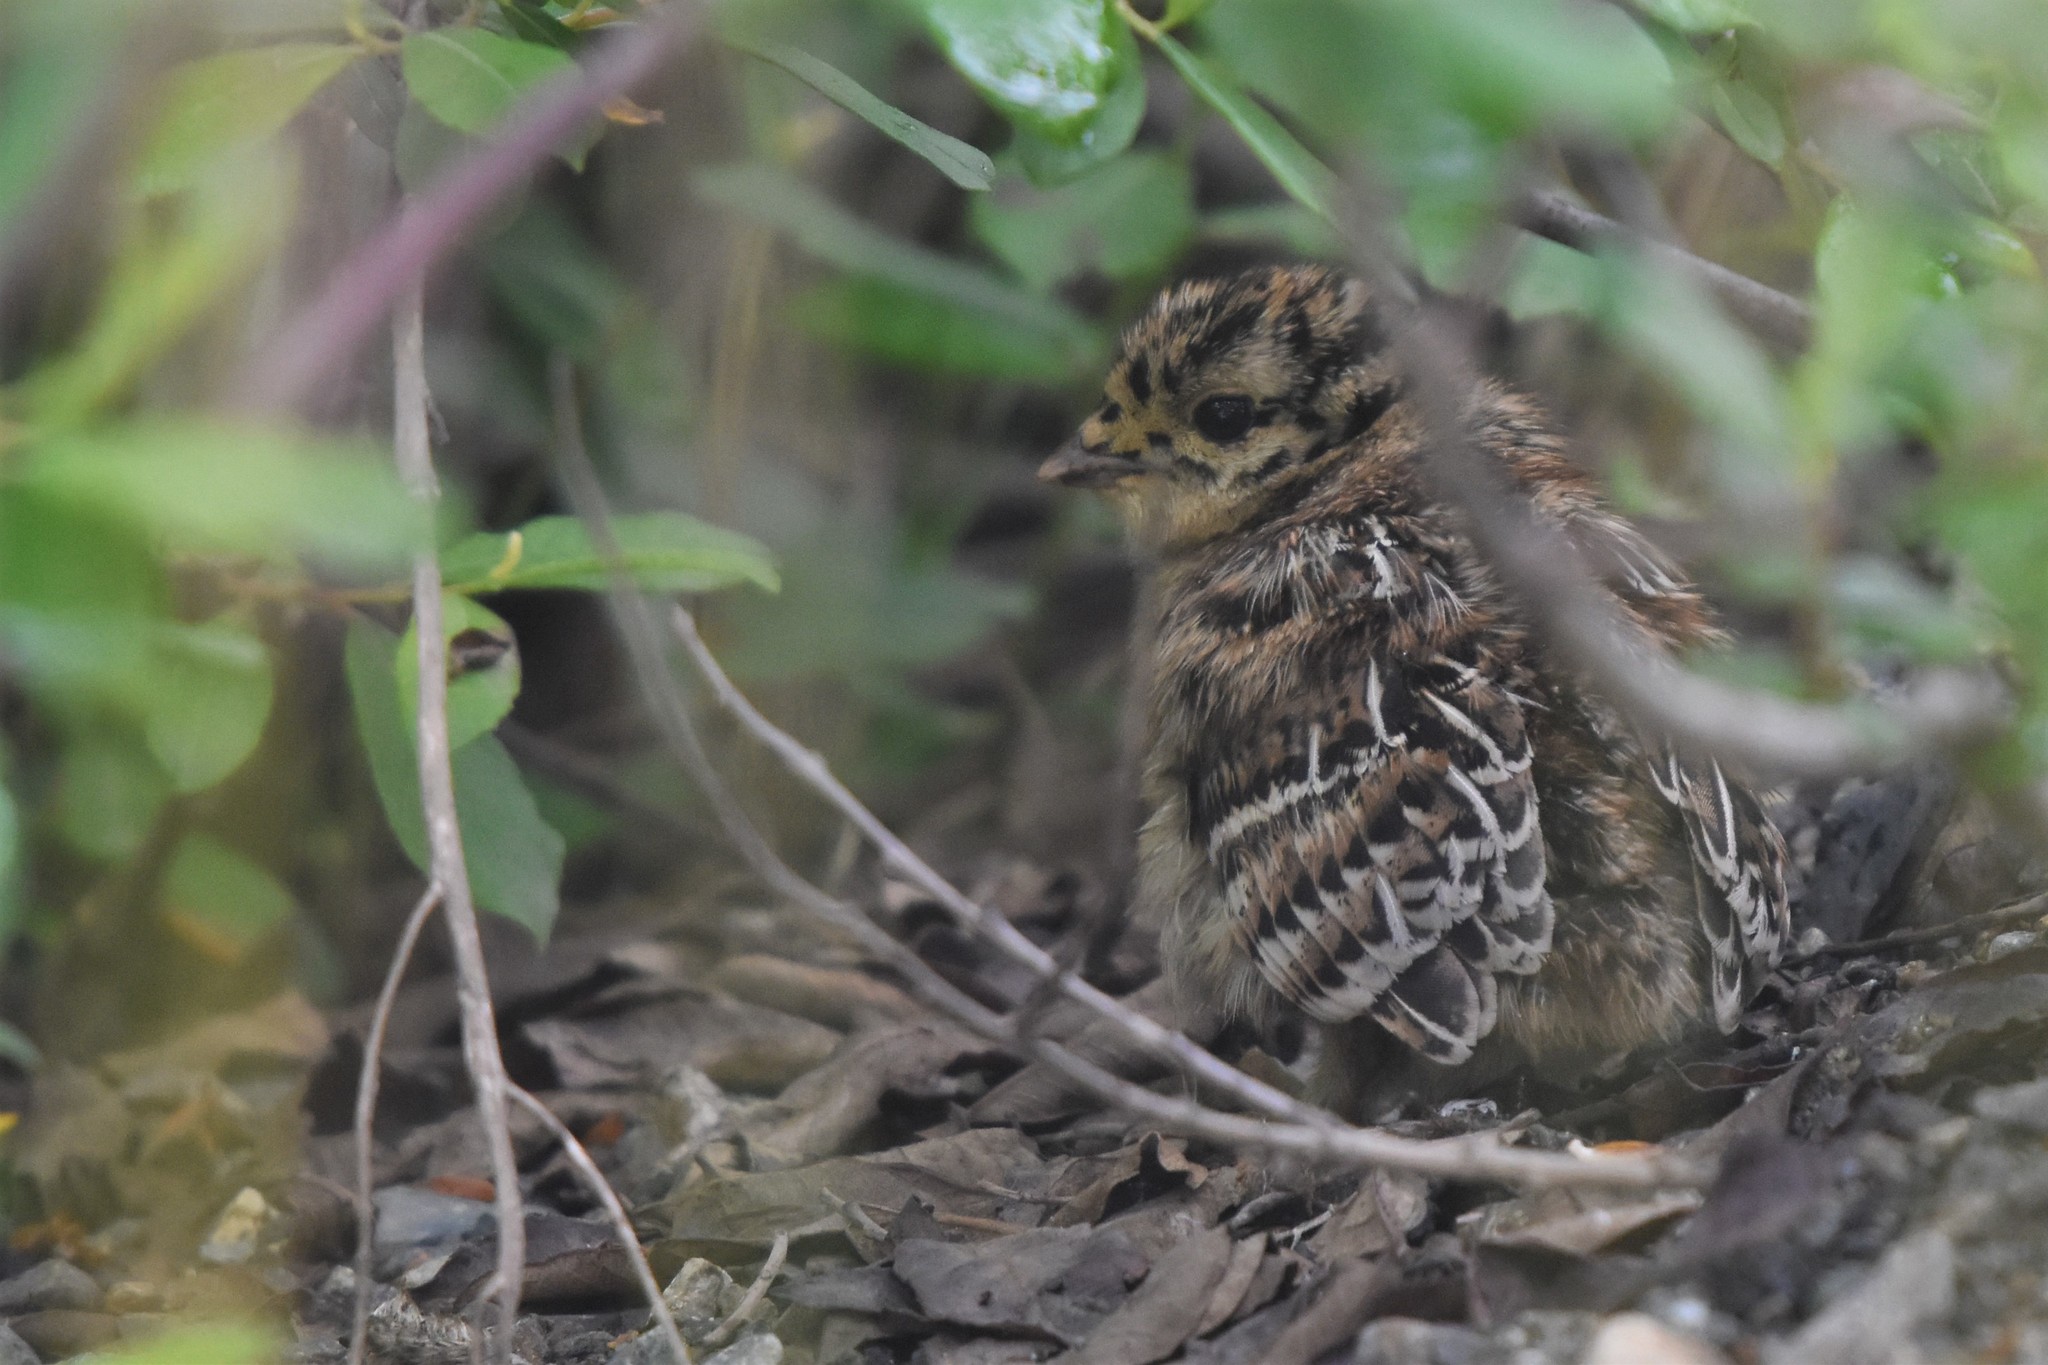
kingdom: Animalia
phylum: Chordata
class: Aves
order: Galliformes
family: Phasianidae
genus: Dendragapus
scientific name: Dendragapus fuliginosus
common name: Sooty grouse
